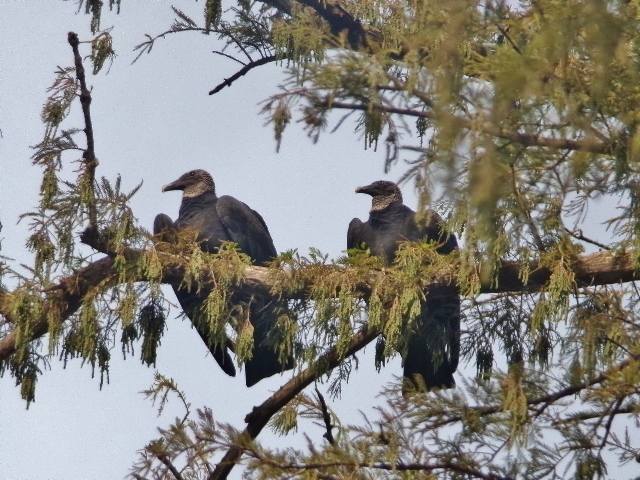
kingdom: Animalia
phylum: Chordata
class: Aves
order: Accipitriformes
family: Cathartidae
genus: Coragyps
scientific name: Coragyps atratus
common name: Black vulture
